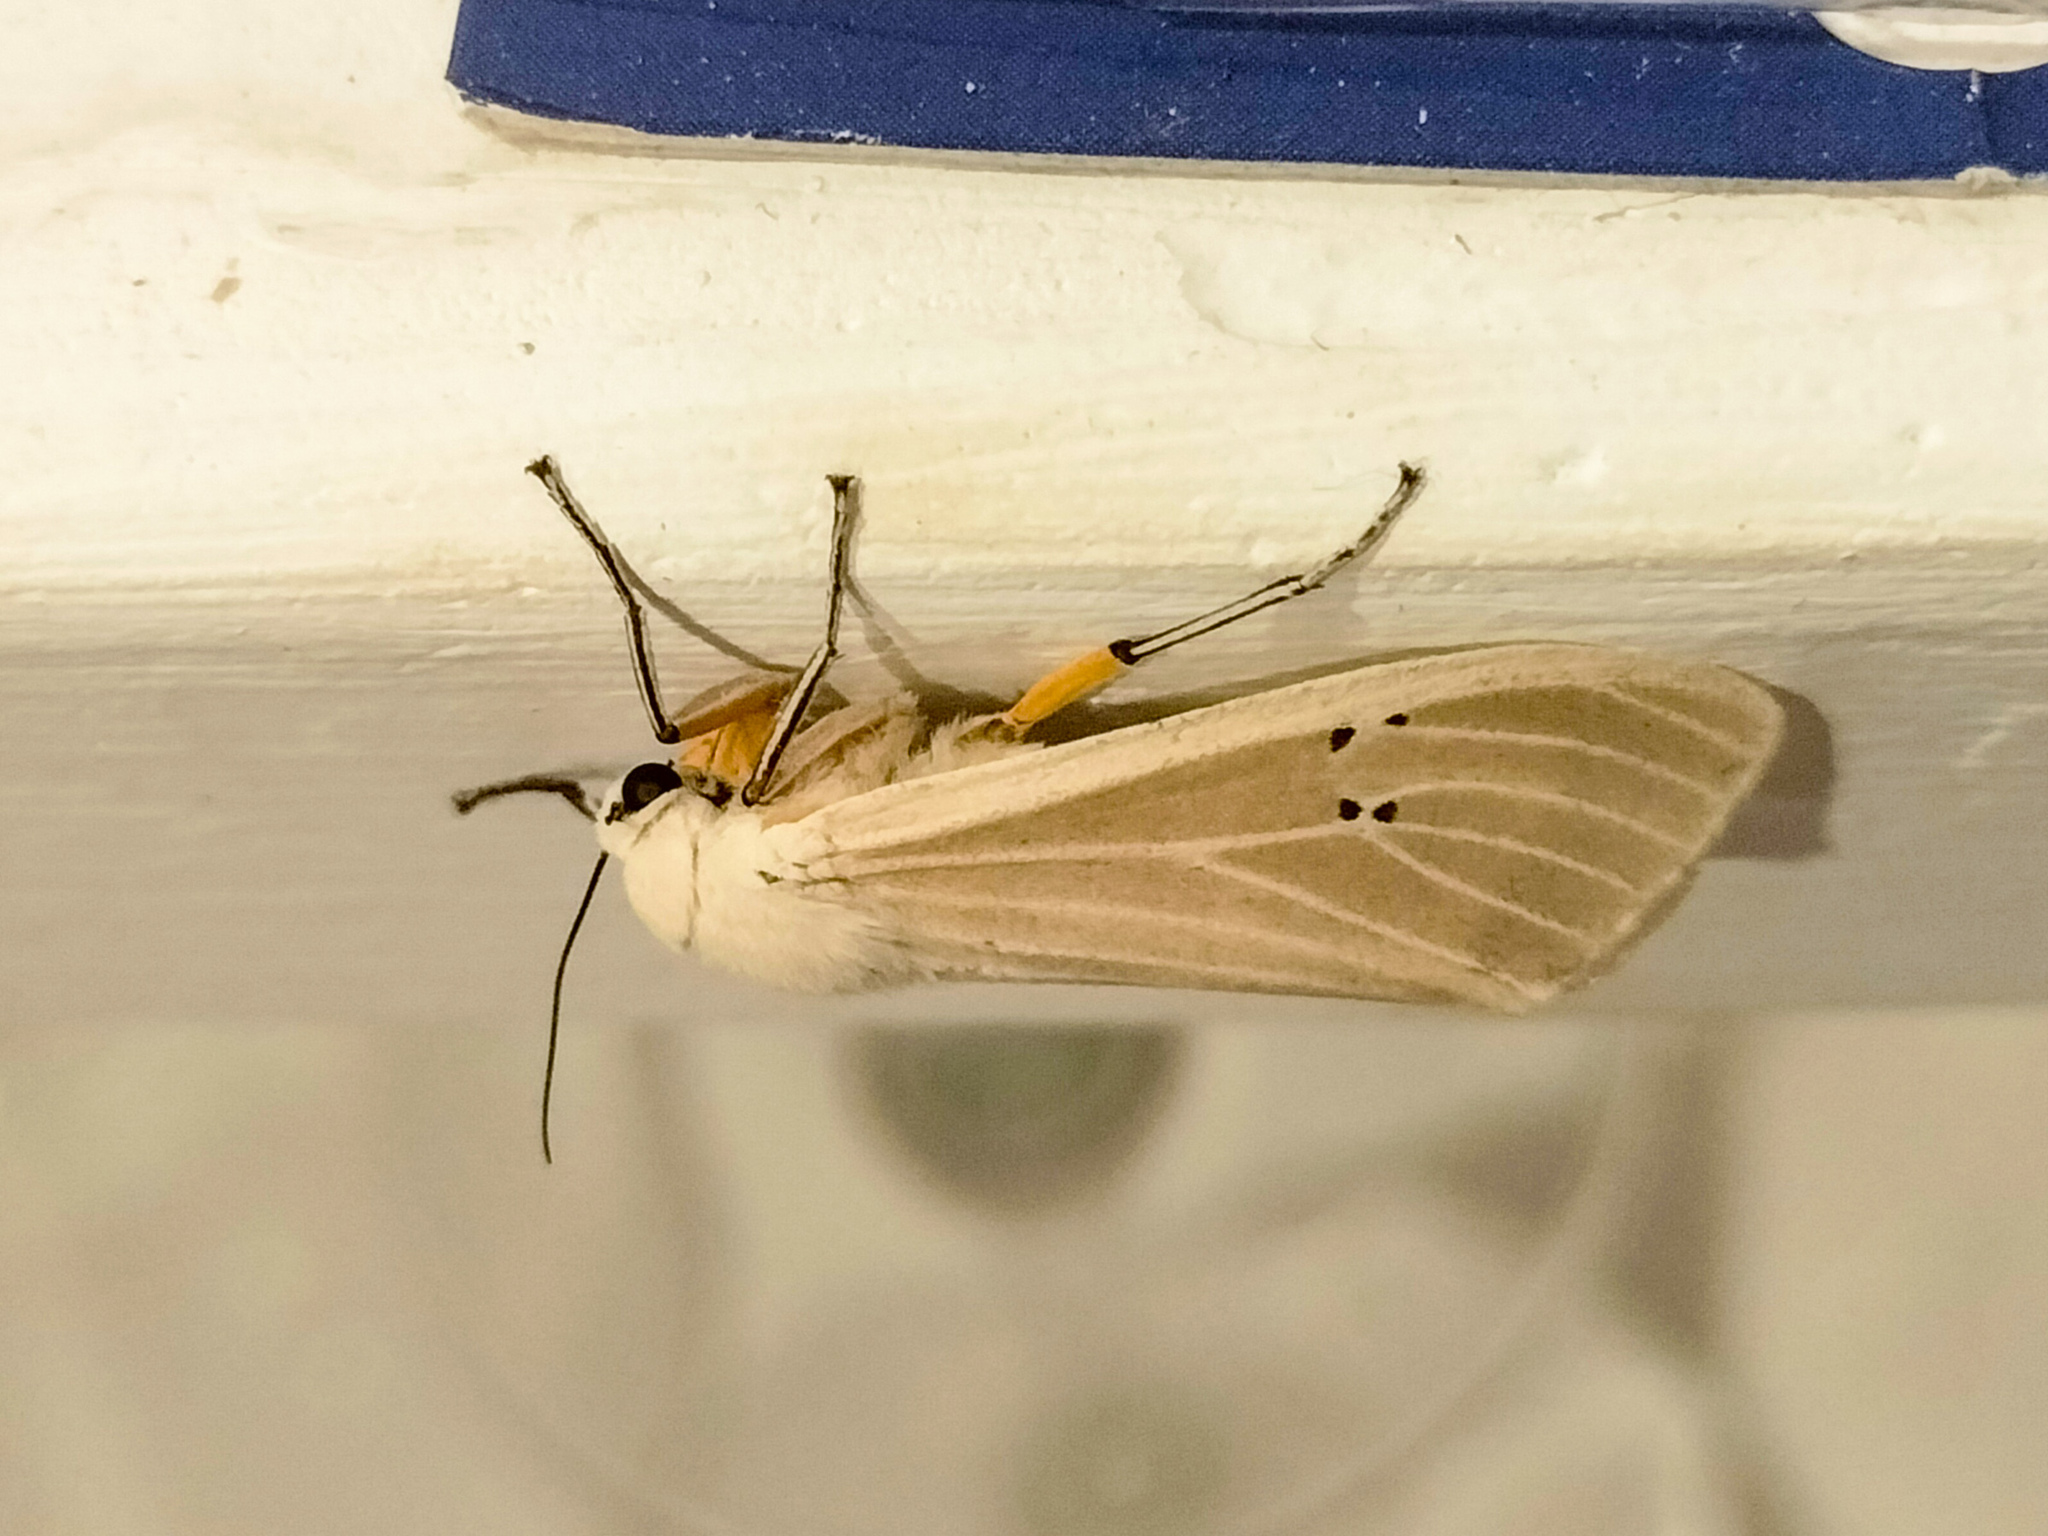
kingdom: Animalia
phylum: Arthropoda
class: Insecta
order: Lepidoptera
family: Erebidae
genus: Creatonotos
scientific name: Creatonotos transiens
